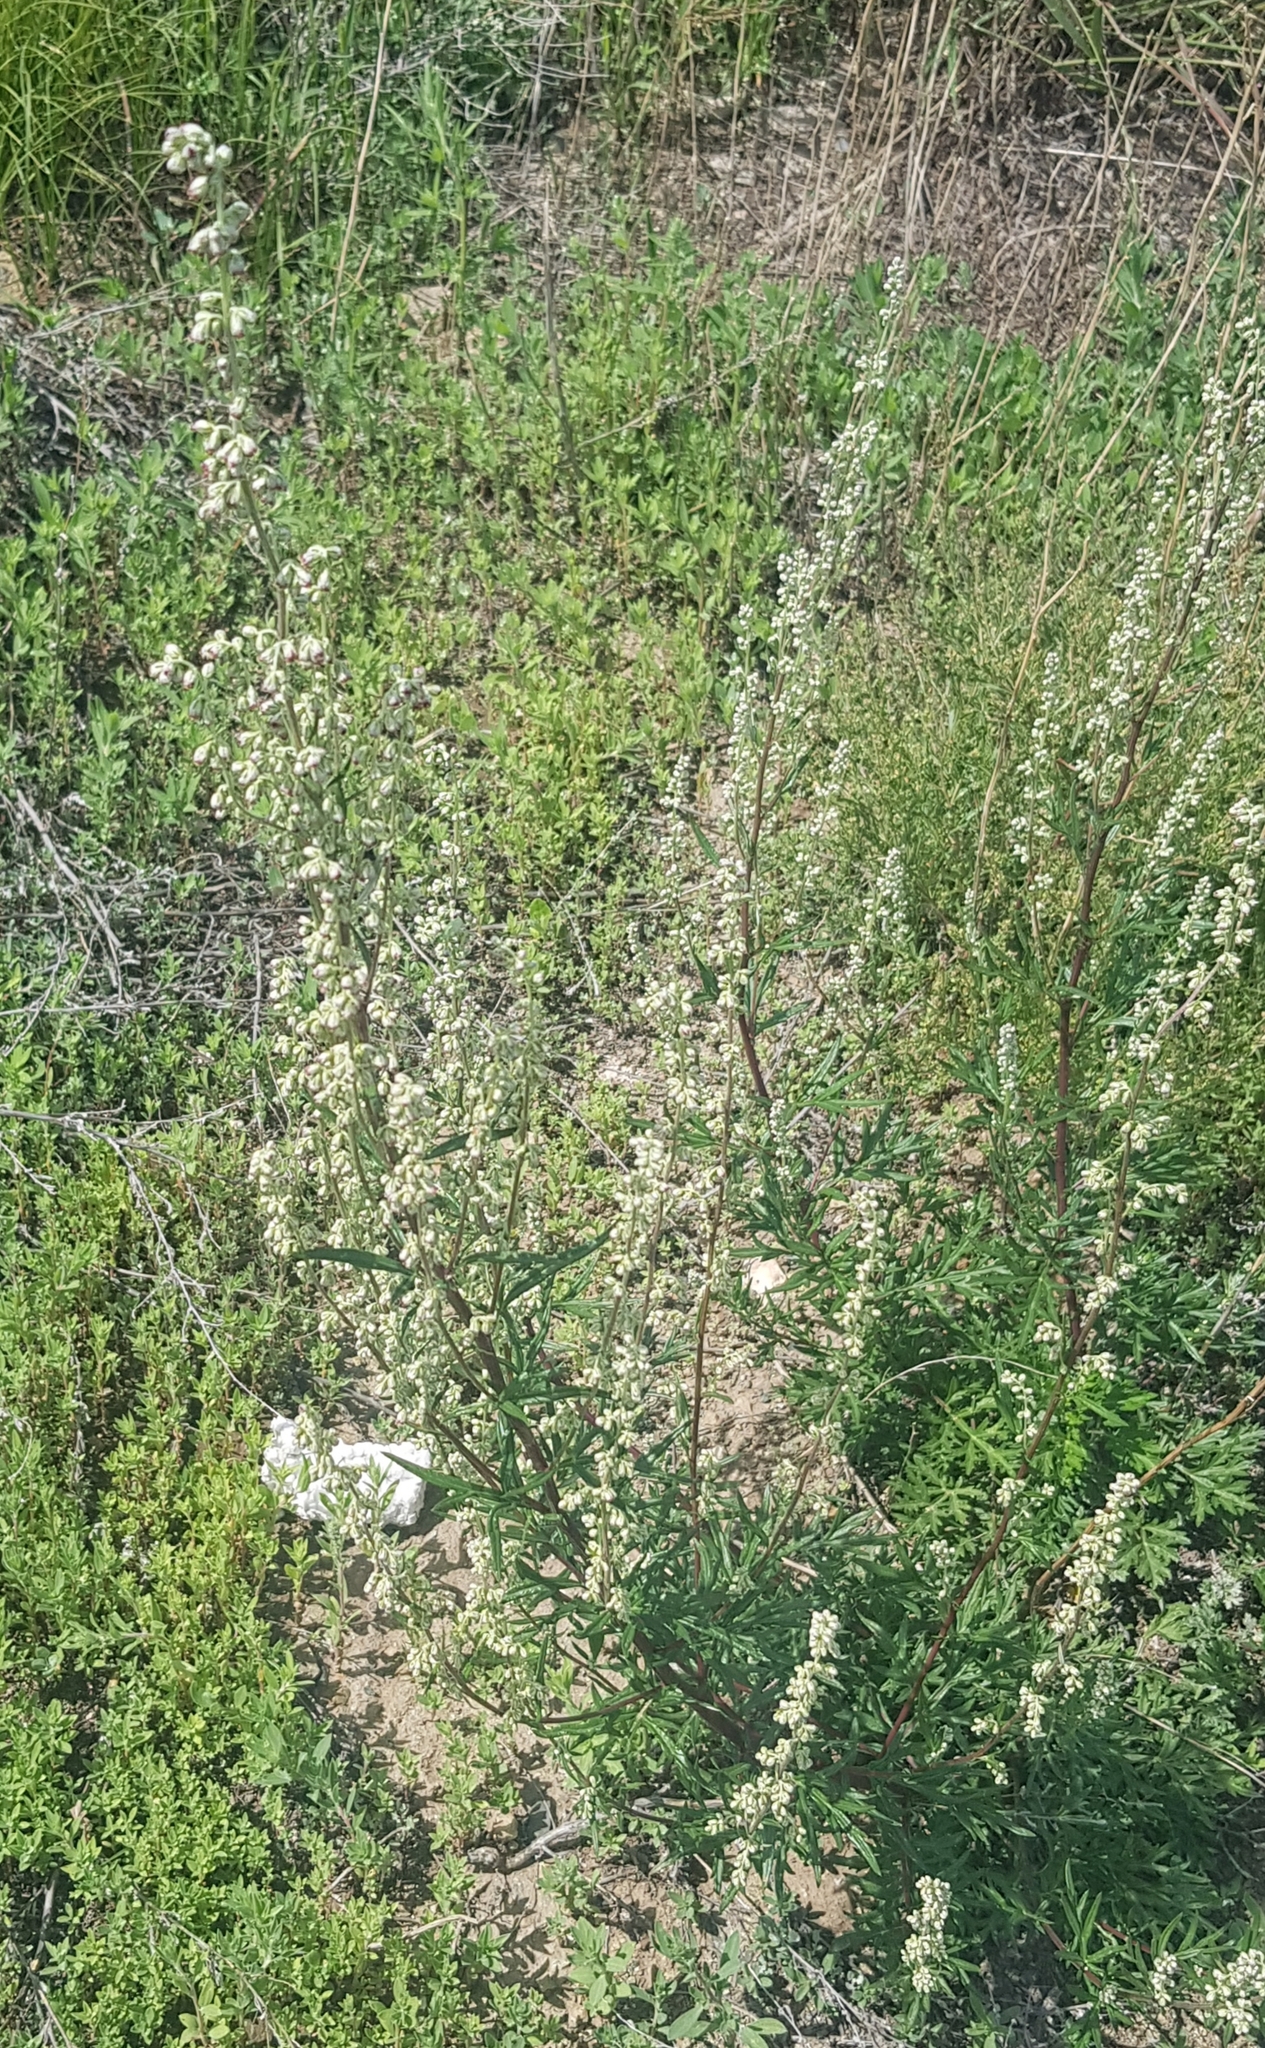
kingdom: Plantae
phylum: Tracheophyta
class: Magnoliopsida
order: Asterales
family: Asteraceae
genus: Artemisia
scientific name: Artemisia vulgaris
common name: Mugwort
